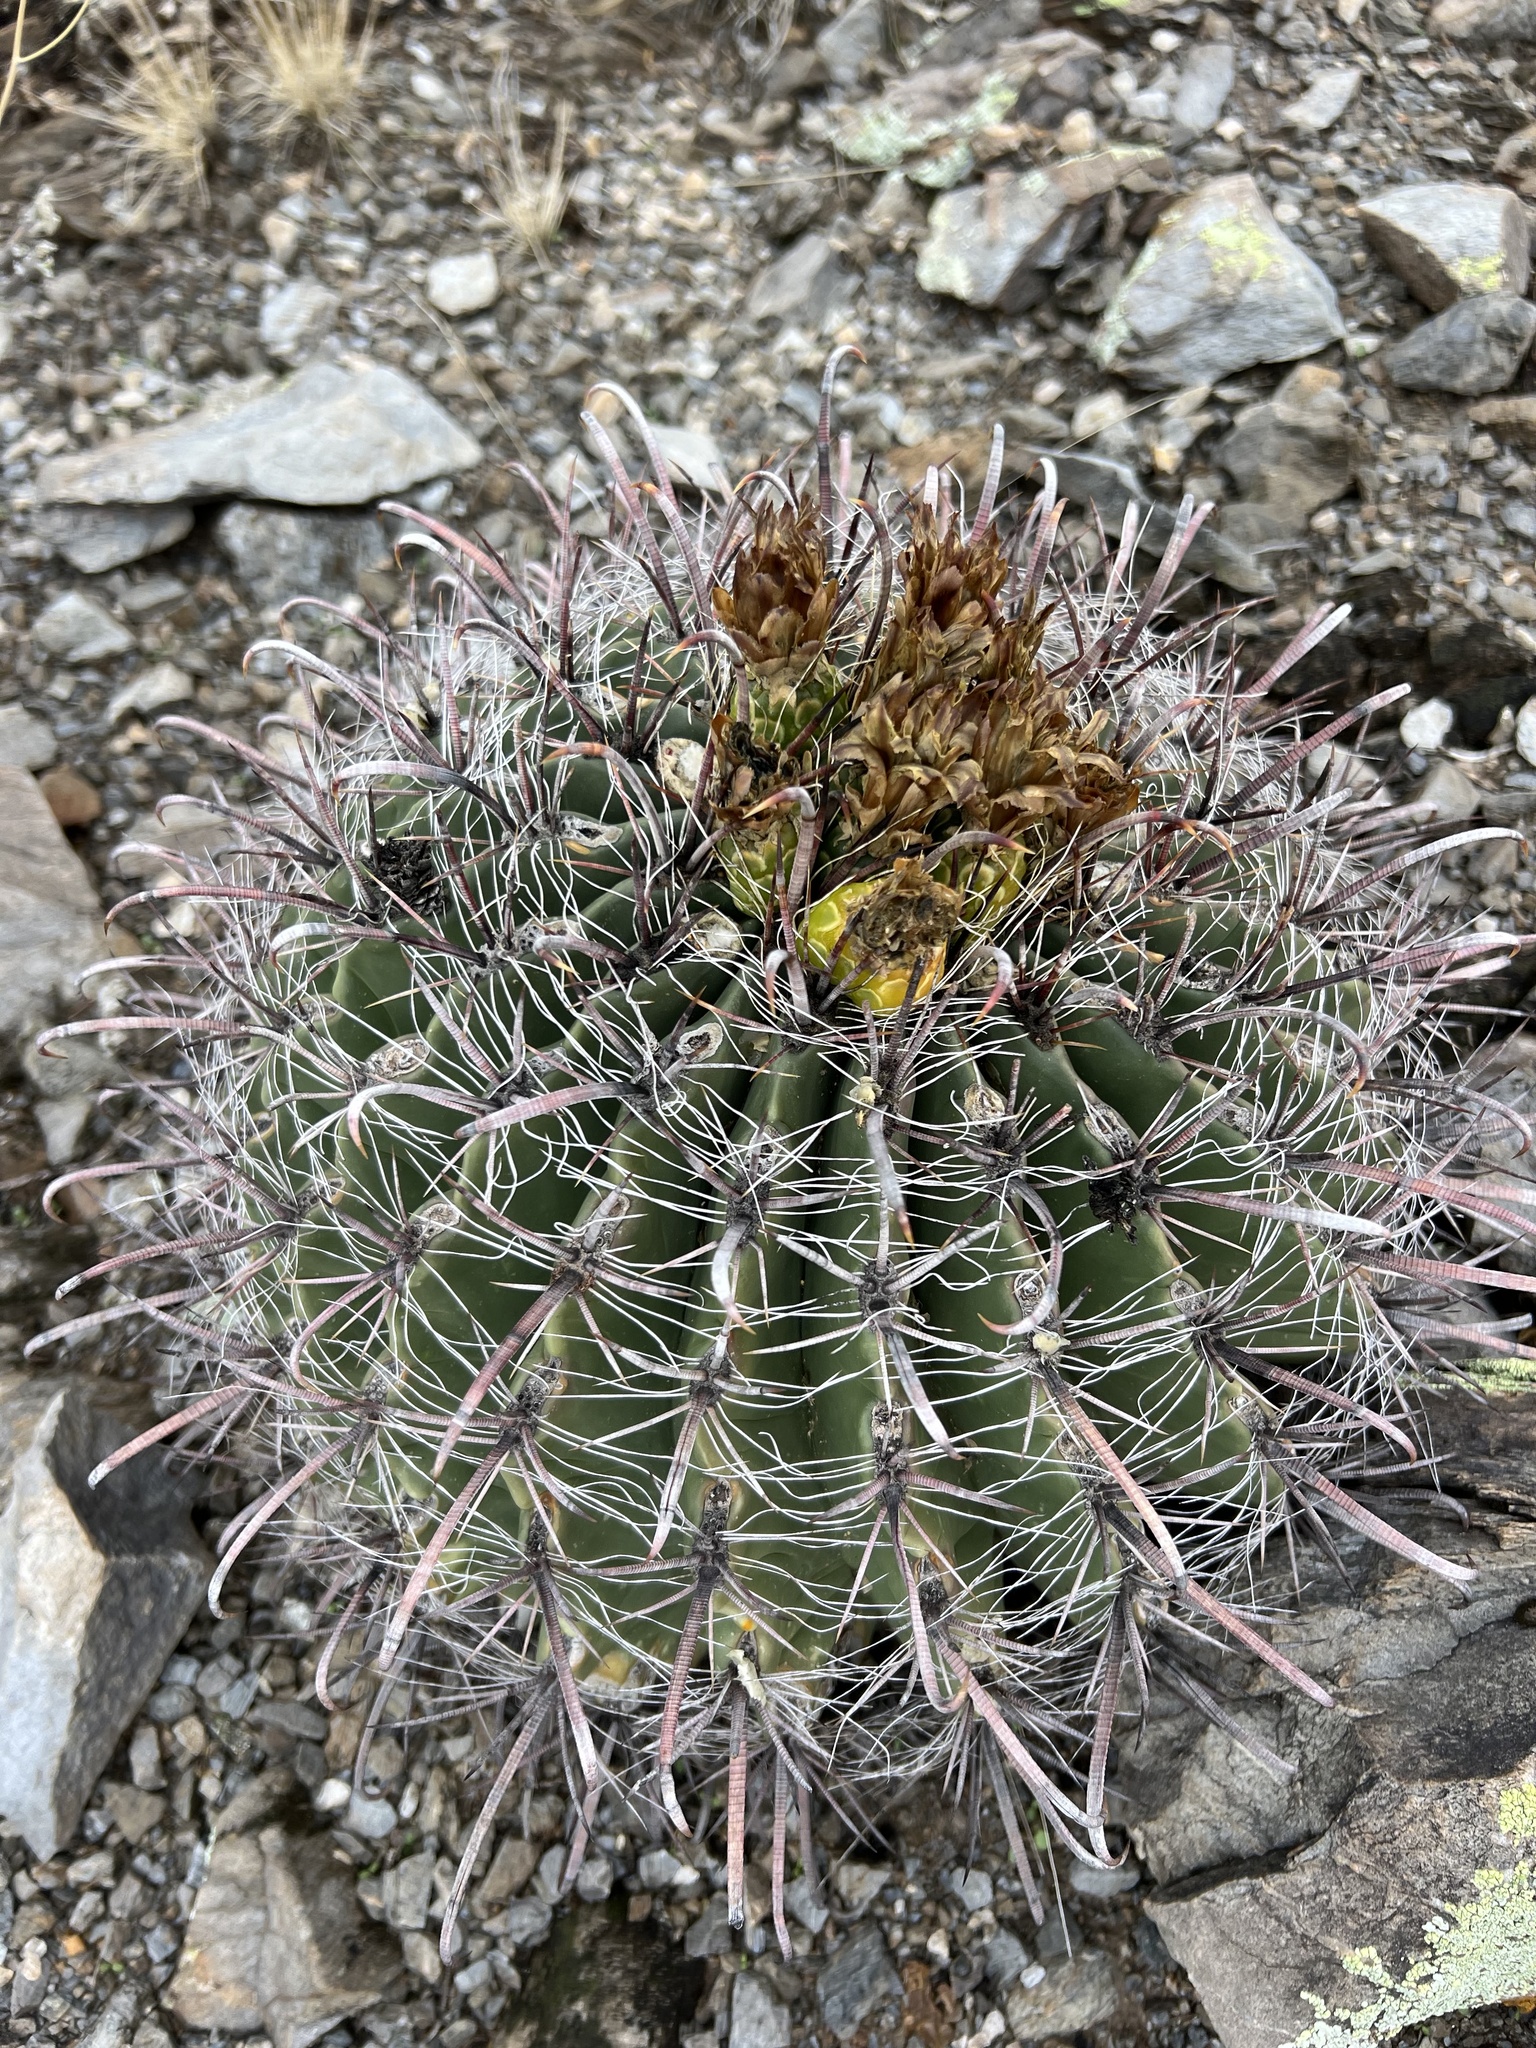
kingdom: Plantae
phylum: Tracheophyta
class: Magnoliopsida
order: Caryophyllales
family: Cactaceae
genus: Ferocactus
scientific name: Ferocactus wislizeni
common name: Candy barrel cactus
